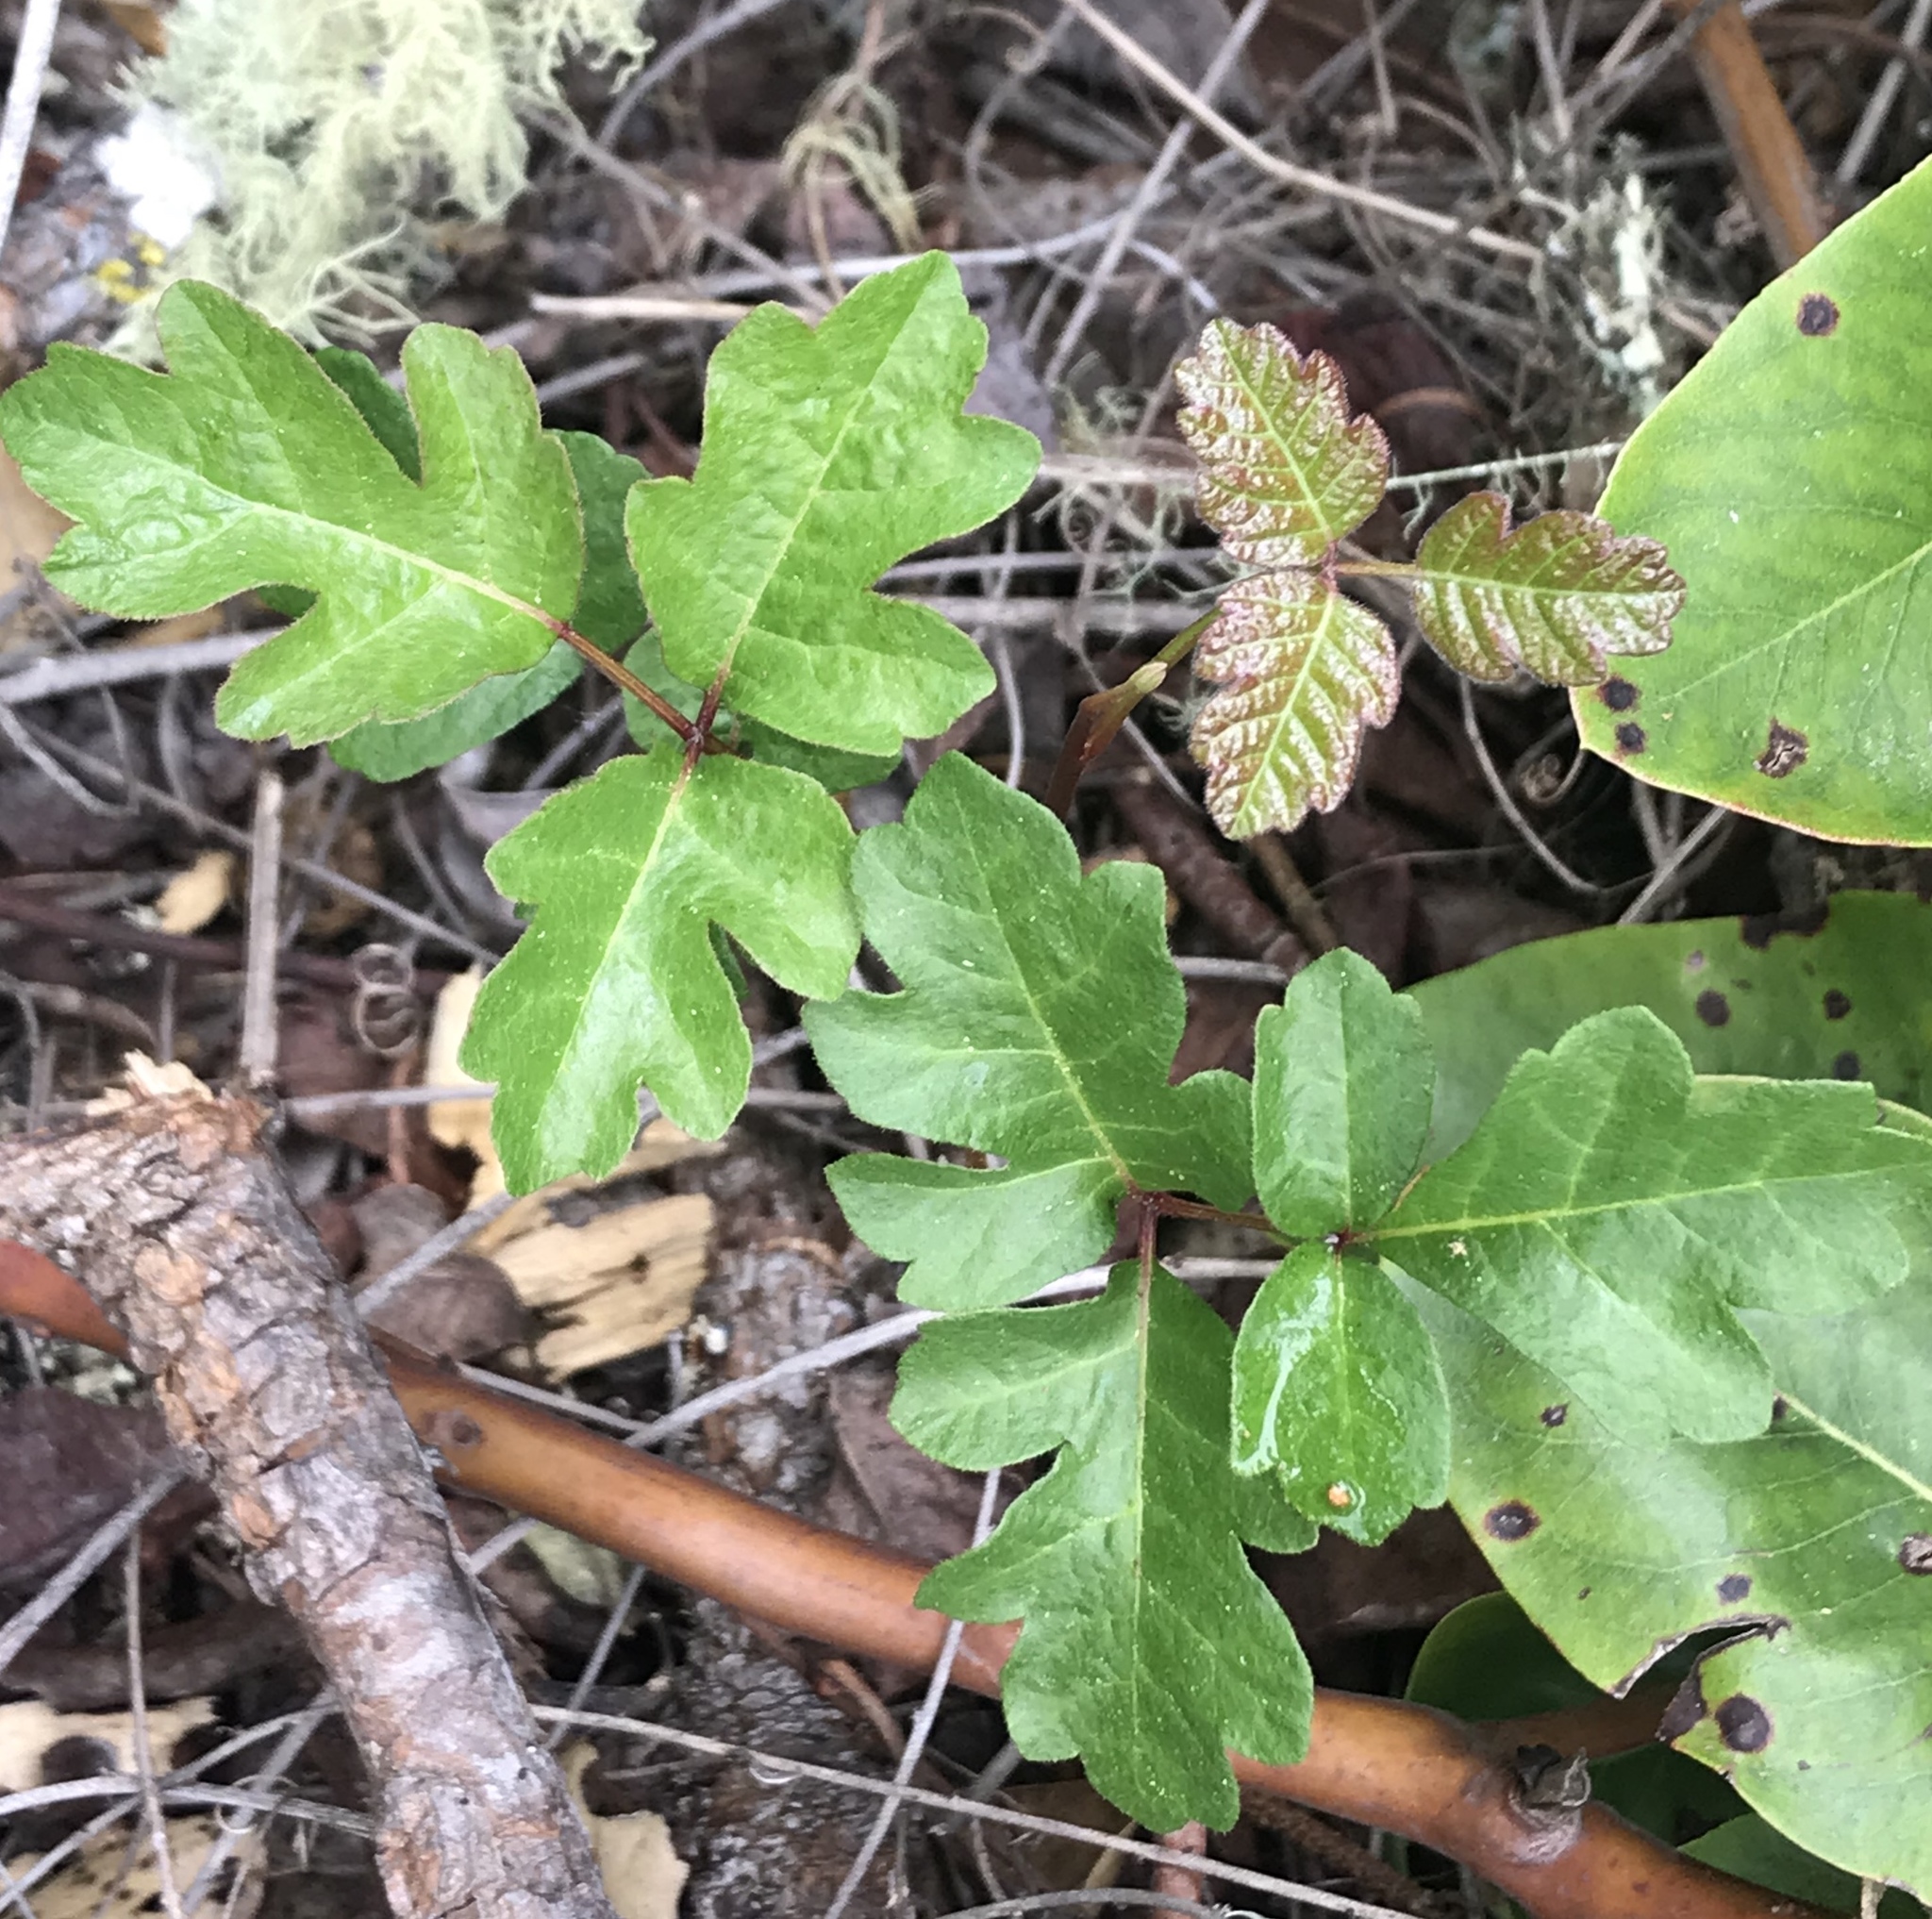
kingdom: Plantae
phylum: Tracheophyta
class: Magnoliopsida
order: Sapindales
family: Anacardiaceae
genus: Toxicodendron
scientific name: Toxicodendron diversilobum
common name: Pacific poison-oak
